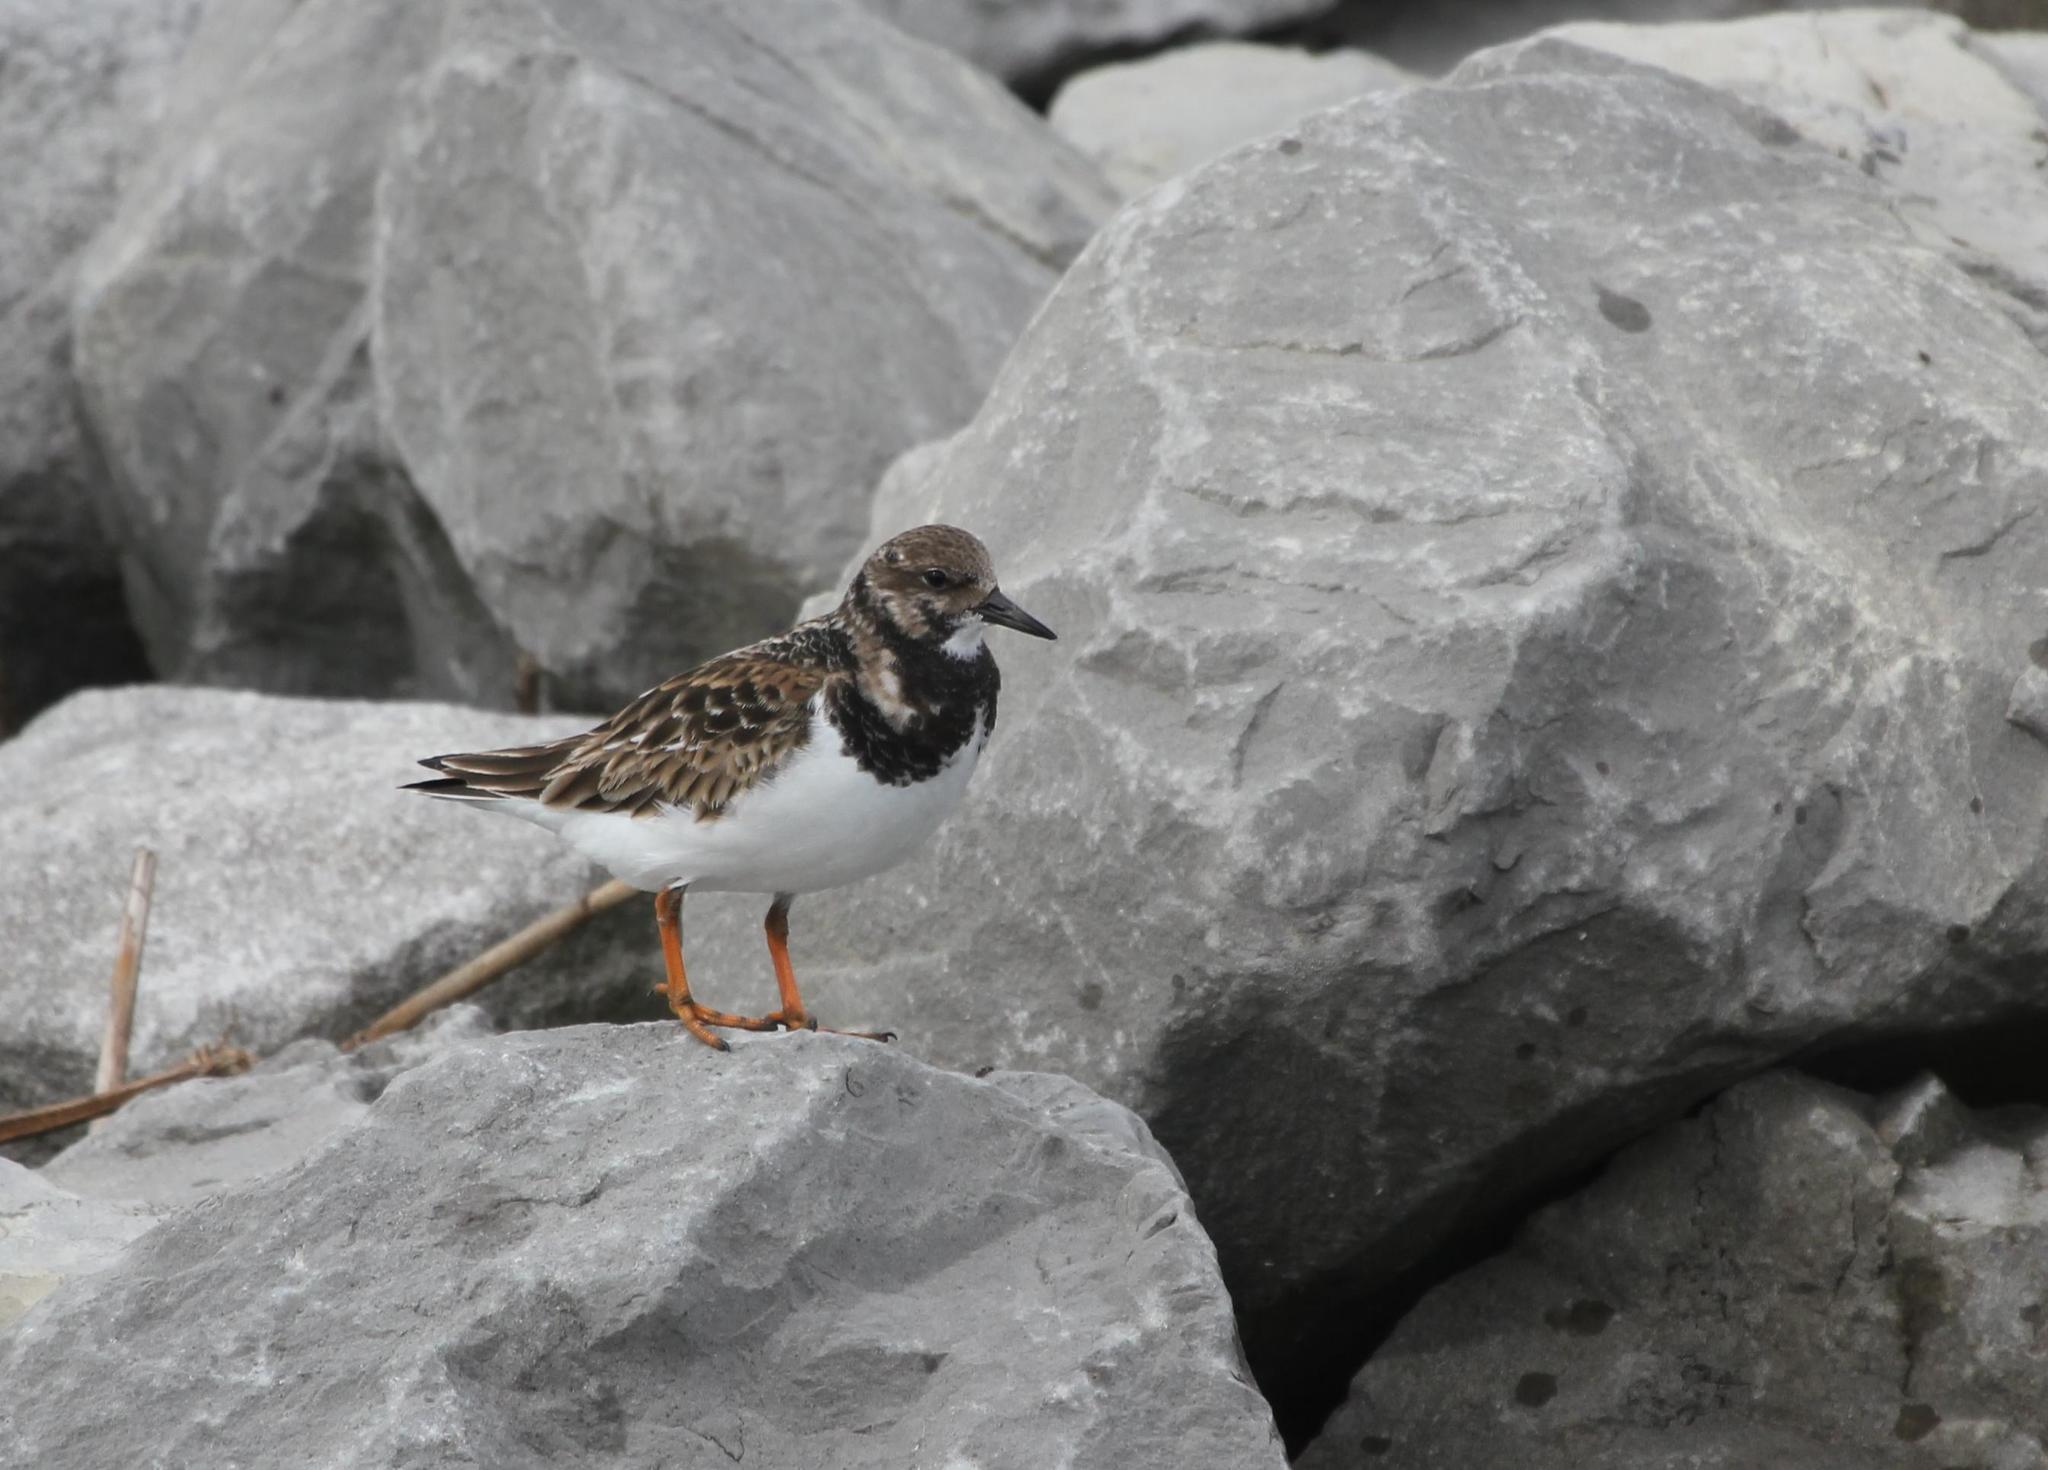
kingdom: Animalia
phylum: Chordata
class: Aves
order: Charadriiformes
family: Scolopacidae
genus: Arenaria
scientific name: Arenaria interpres
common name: Ruddy turnstone
